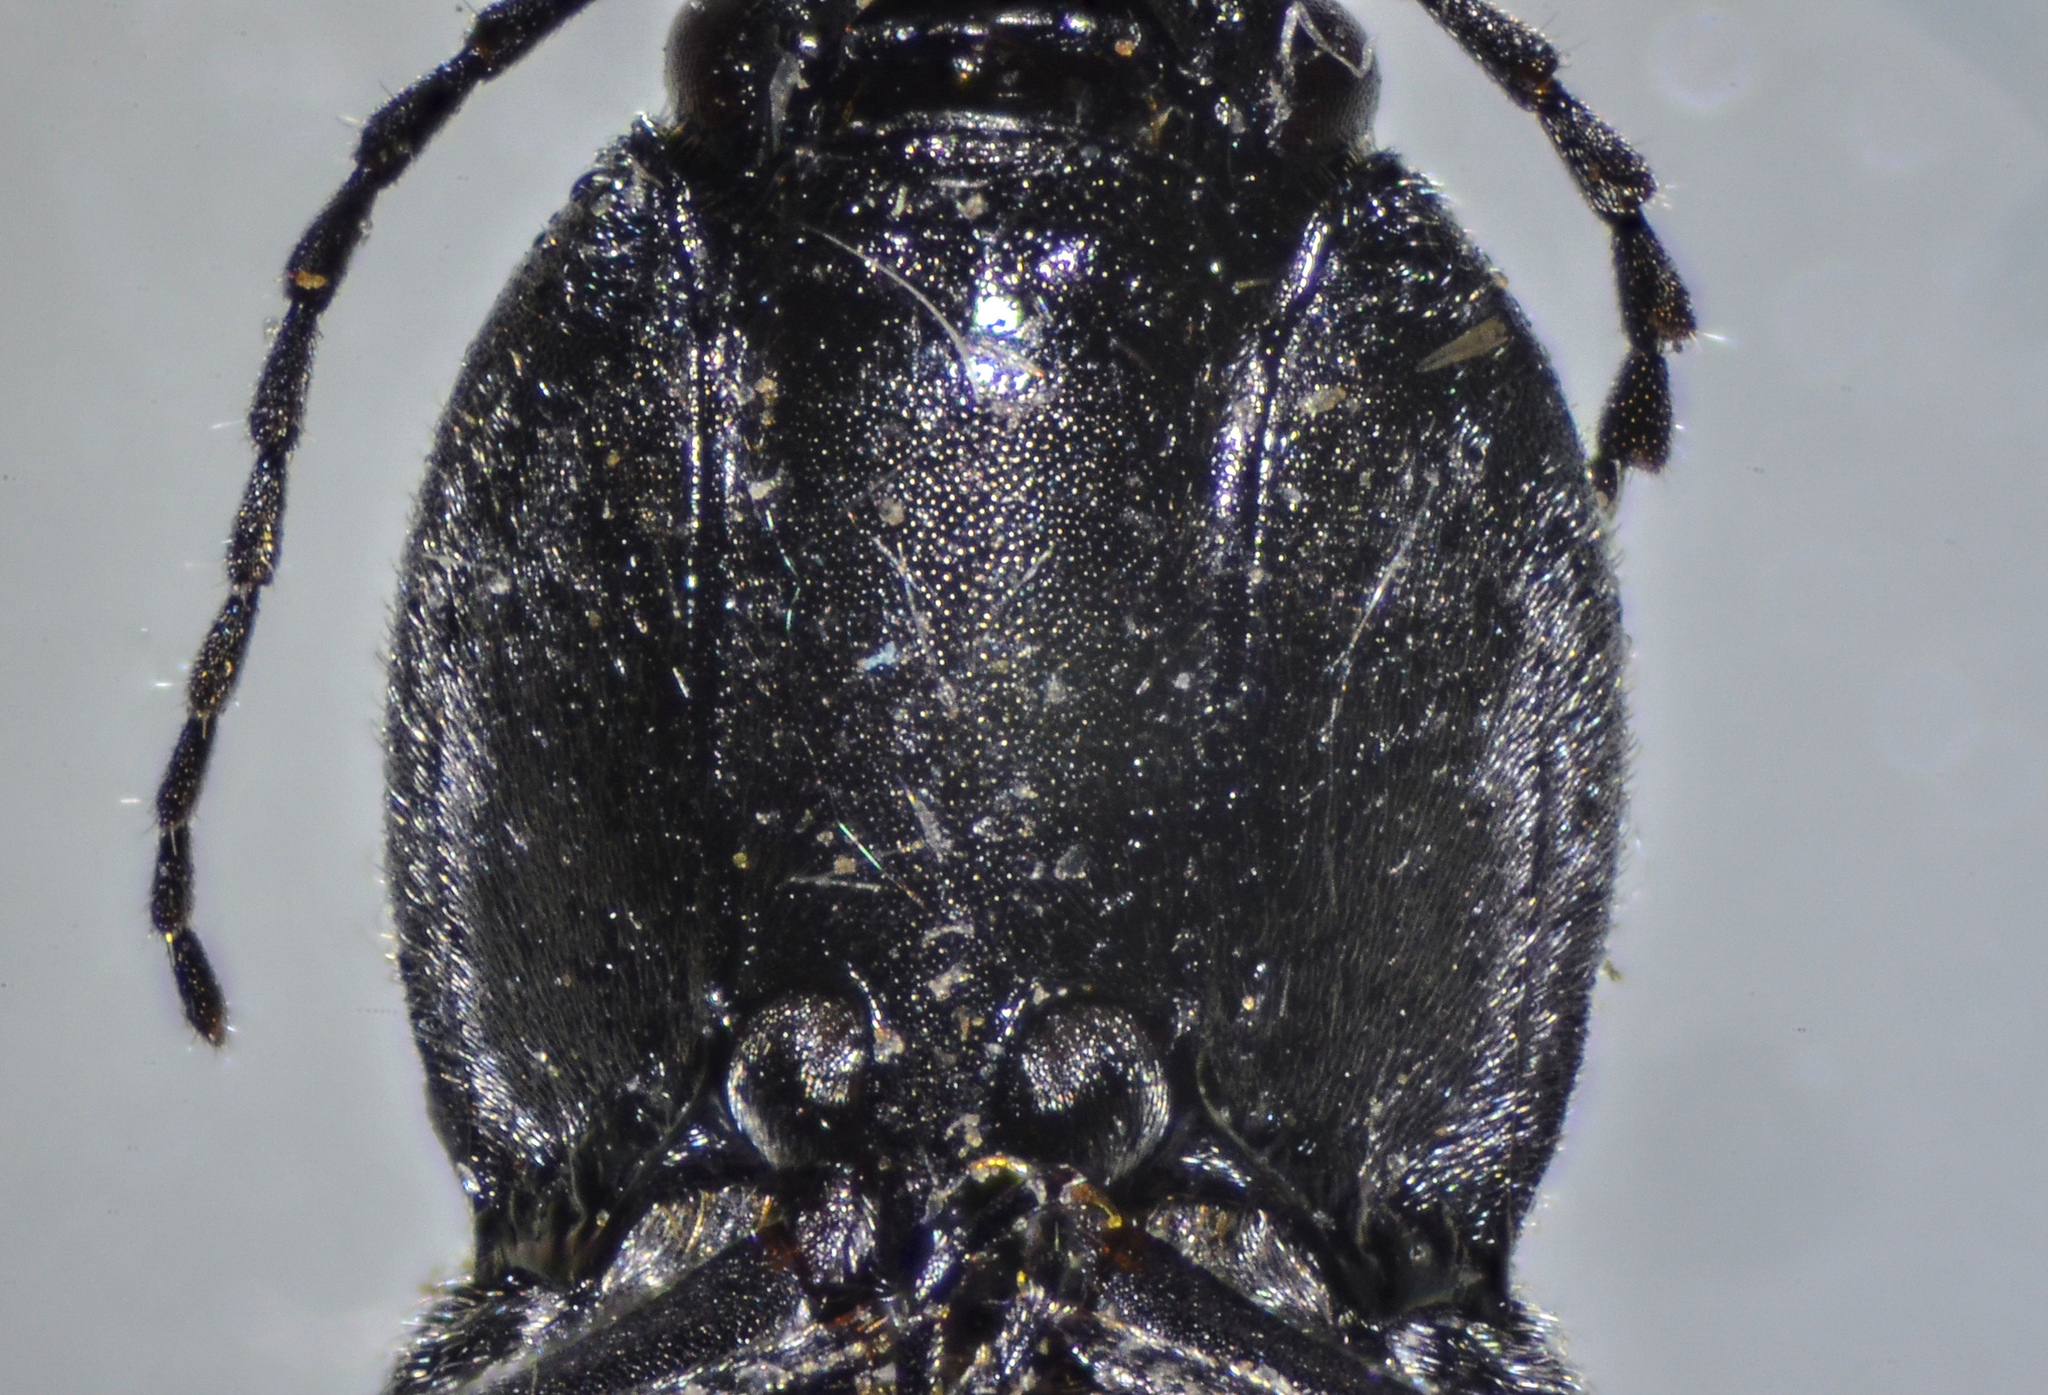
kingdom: Animalia
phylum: Arthropoda
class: Insecta
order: Coleoptera
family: Elateridae
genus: Cardiophorus
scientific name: Cardiophorus
